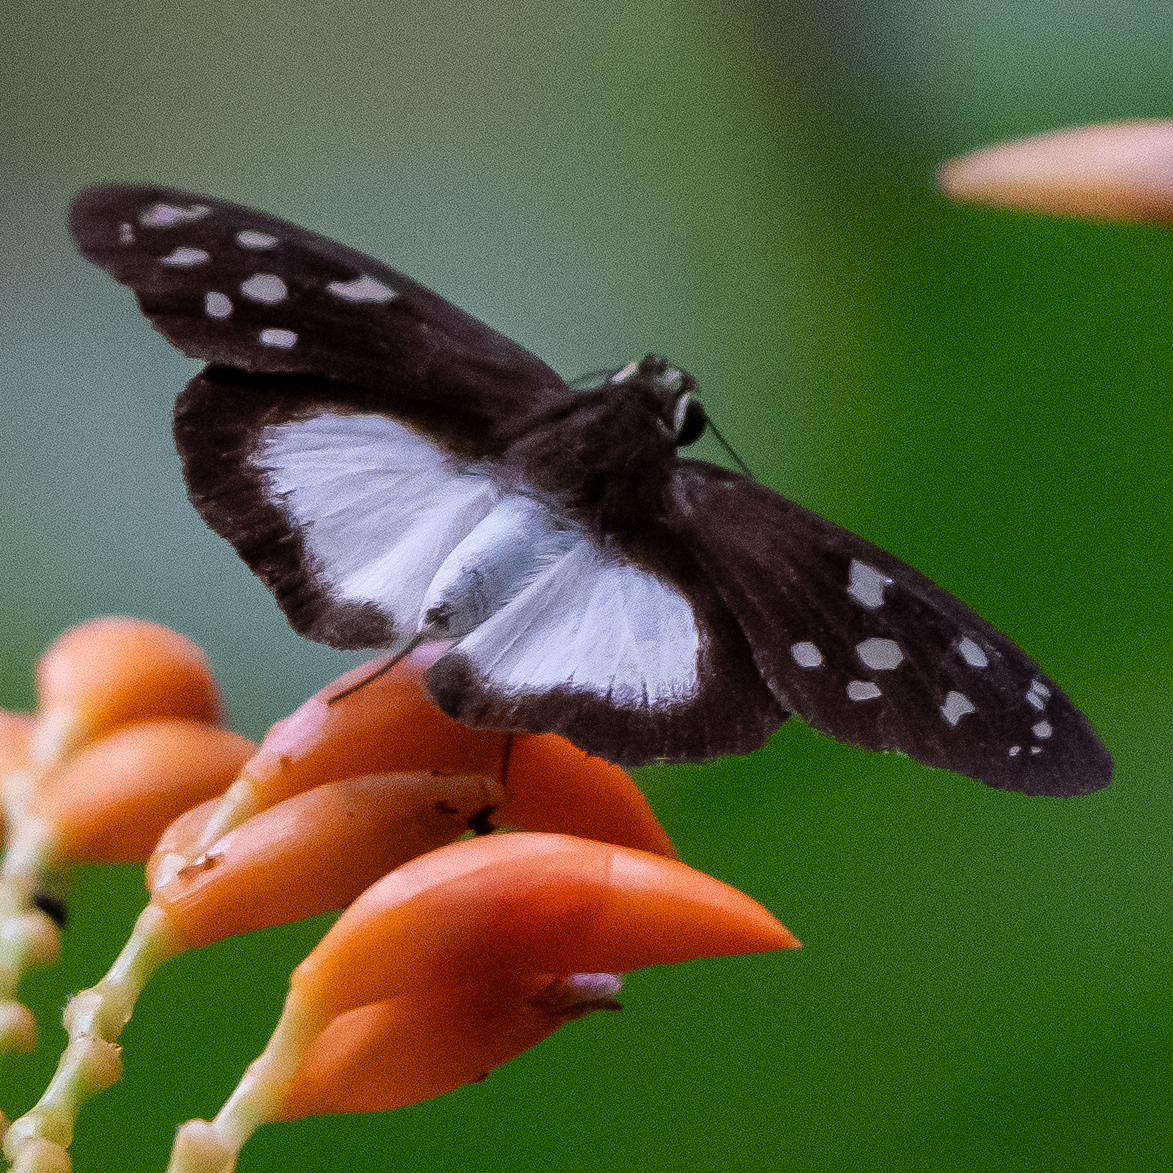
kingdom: Animalia
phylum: Arthropoda
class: Insecta
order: Lepidoptera
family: Hesperiidae
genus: Hyalothyrus
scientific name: Hyalothyrus neleus
